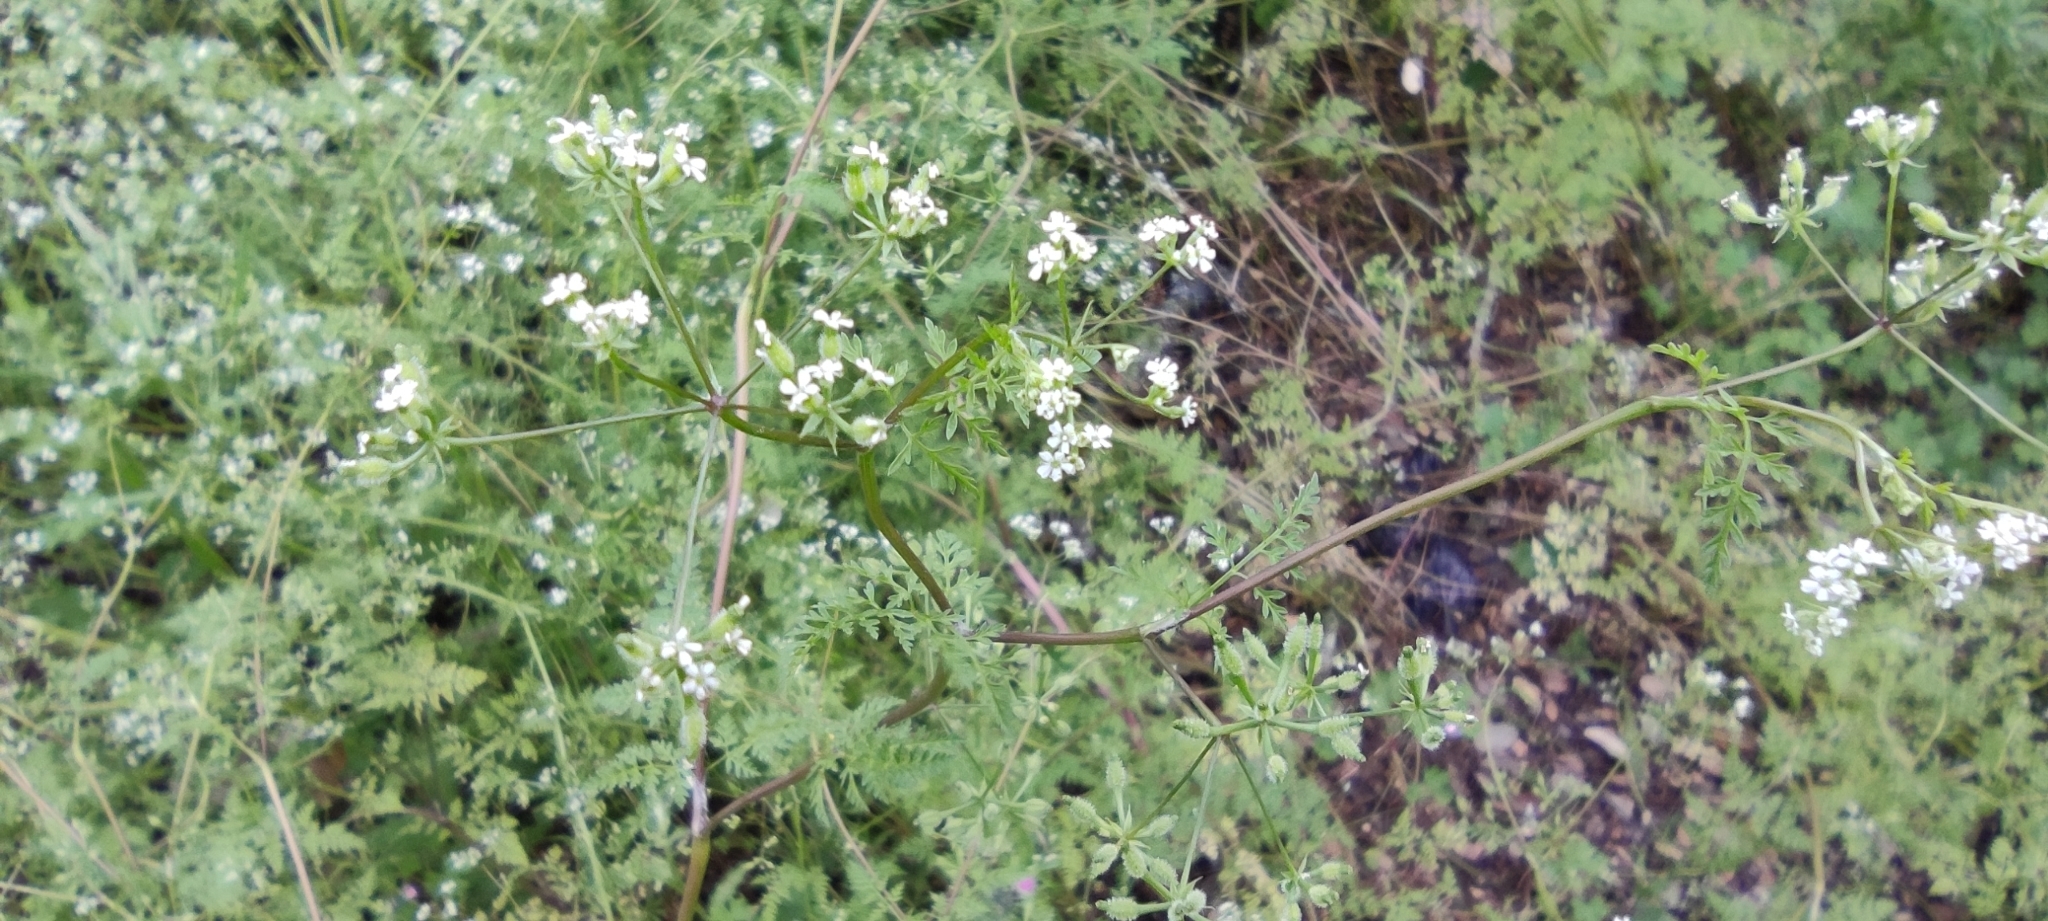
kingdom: Plantae
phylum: Tracheophyta
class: Magnoliopsida
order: Apiales
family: Apiaceae
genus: Anthriscus
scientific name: Anthriscus caucalis
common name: Bur chervil
